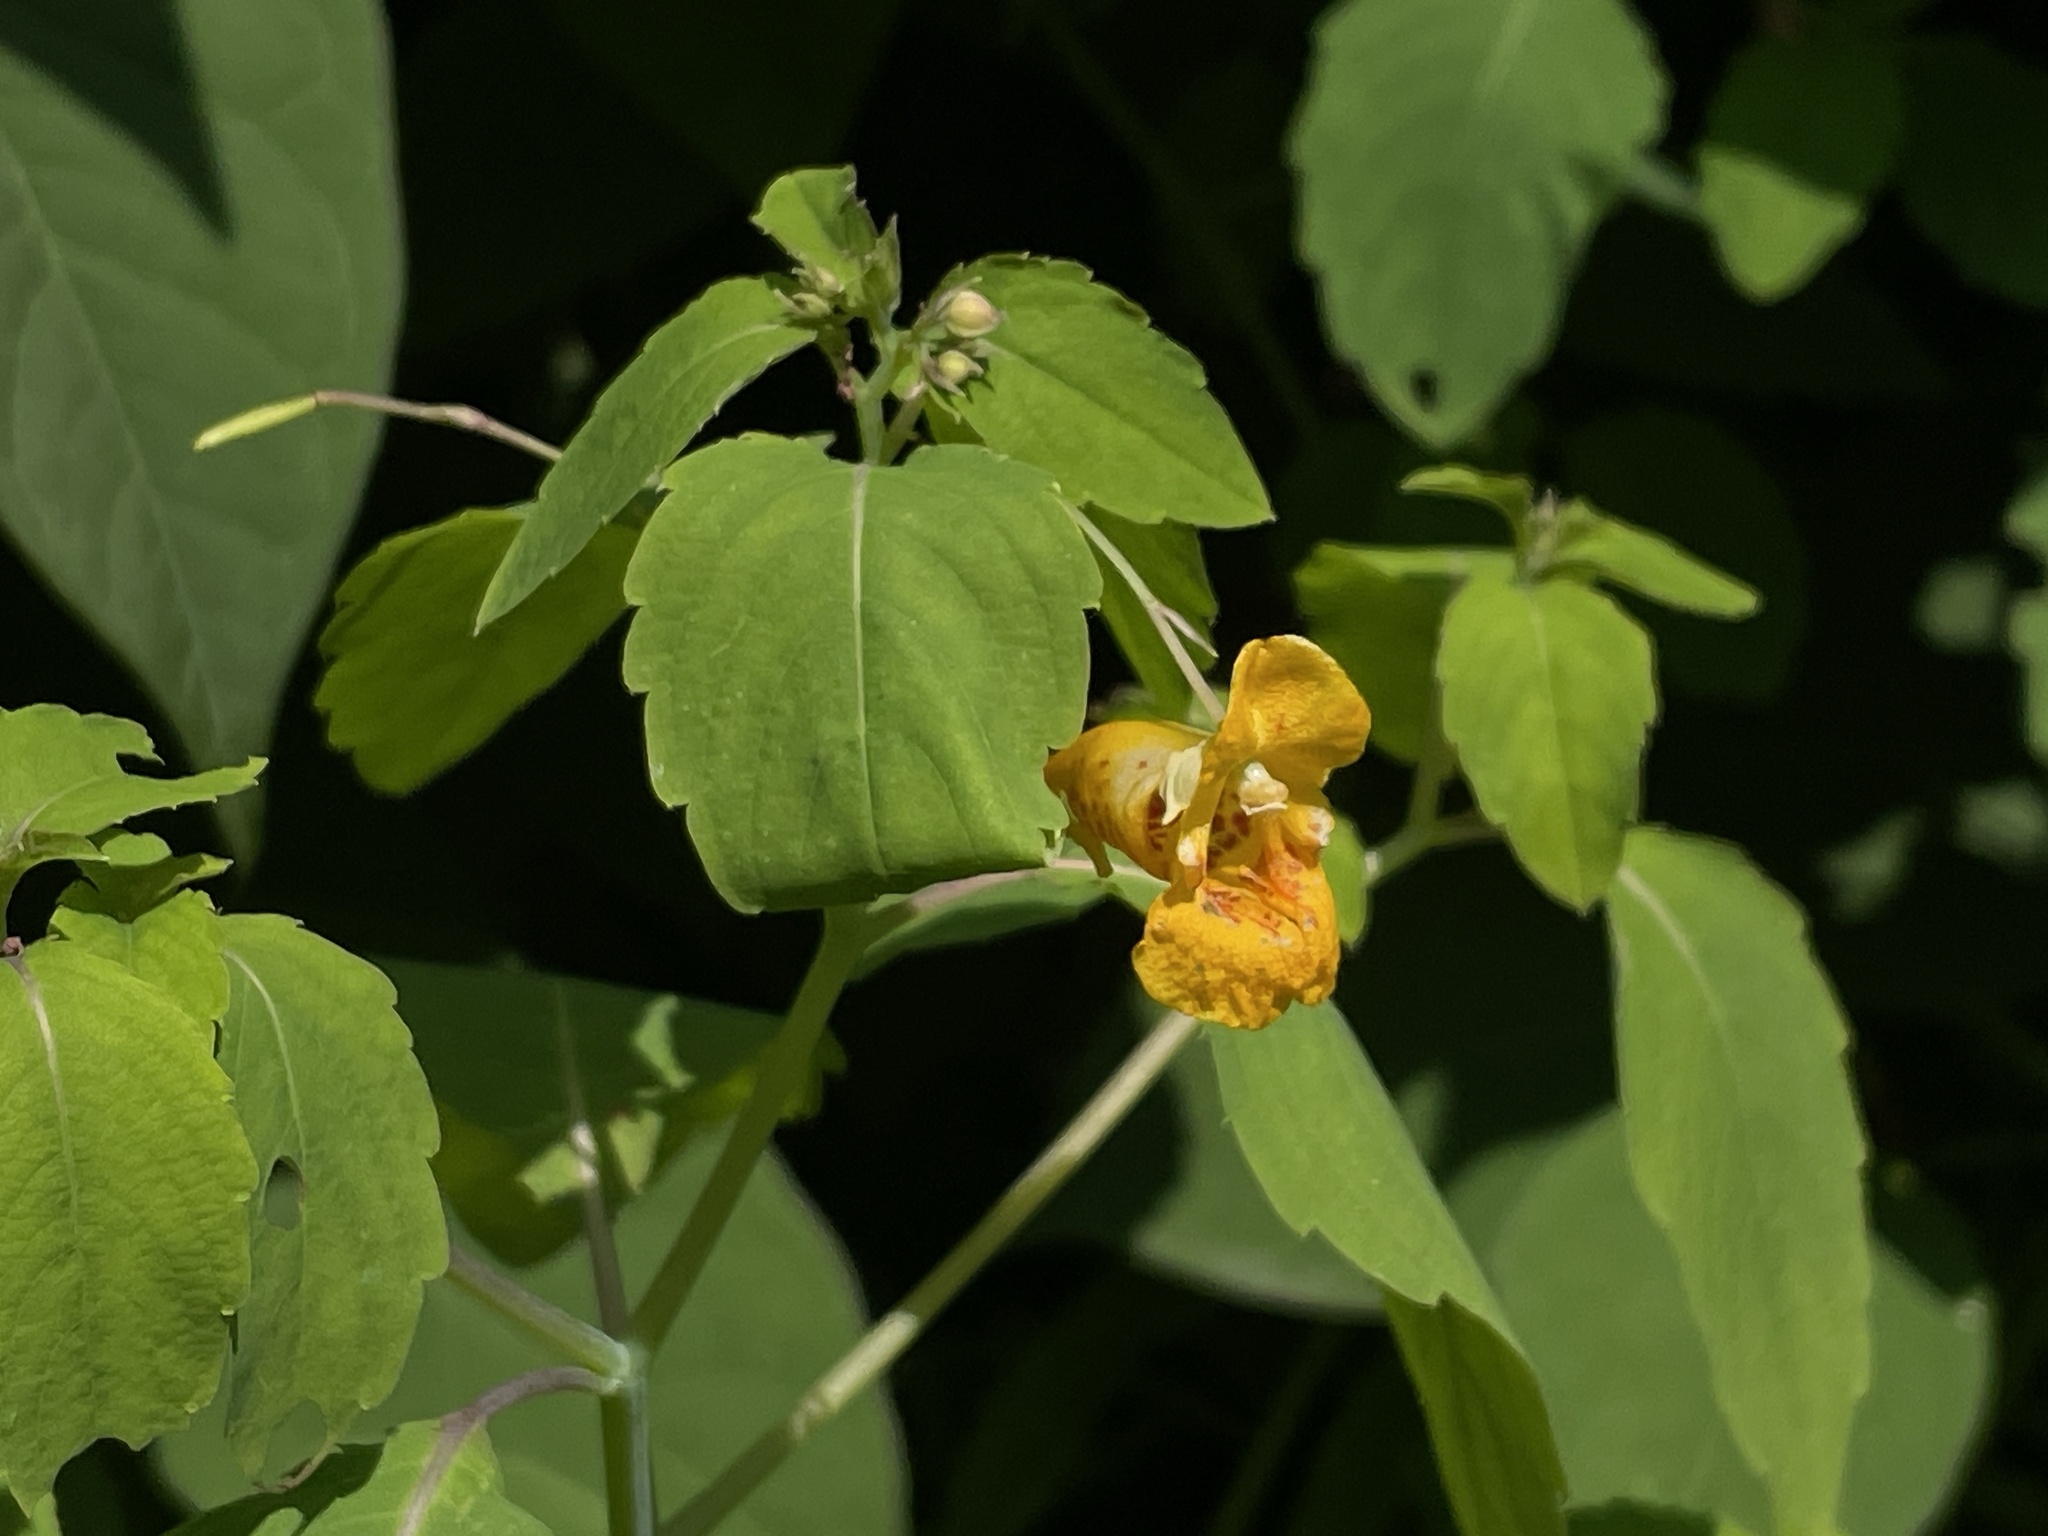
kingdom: Plantae
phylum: Tracheophyta
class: Magnoliopsida
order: Ericales
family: Balsaminaceae
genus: Impatiens
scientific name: Impatiens capensis
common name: Orange balsam
